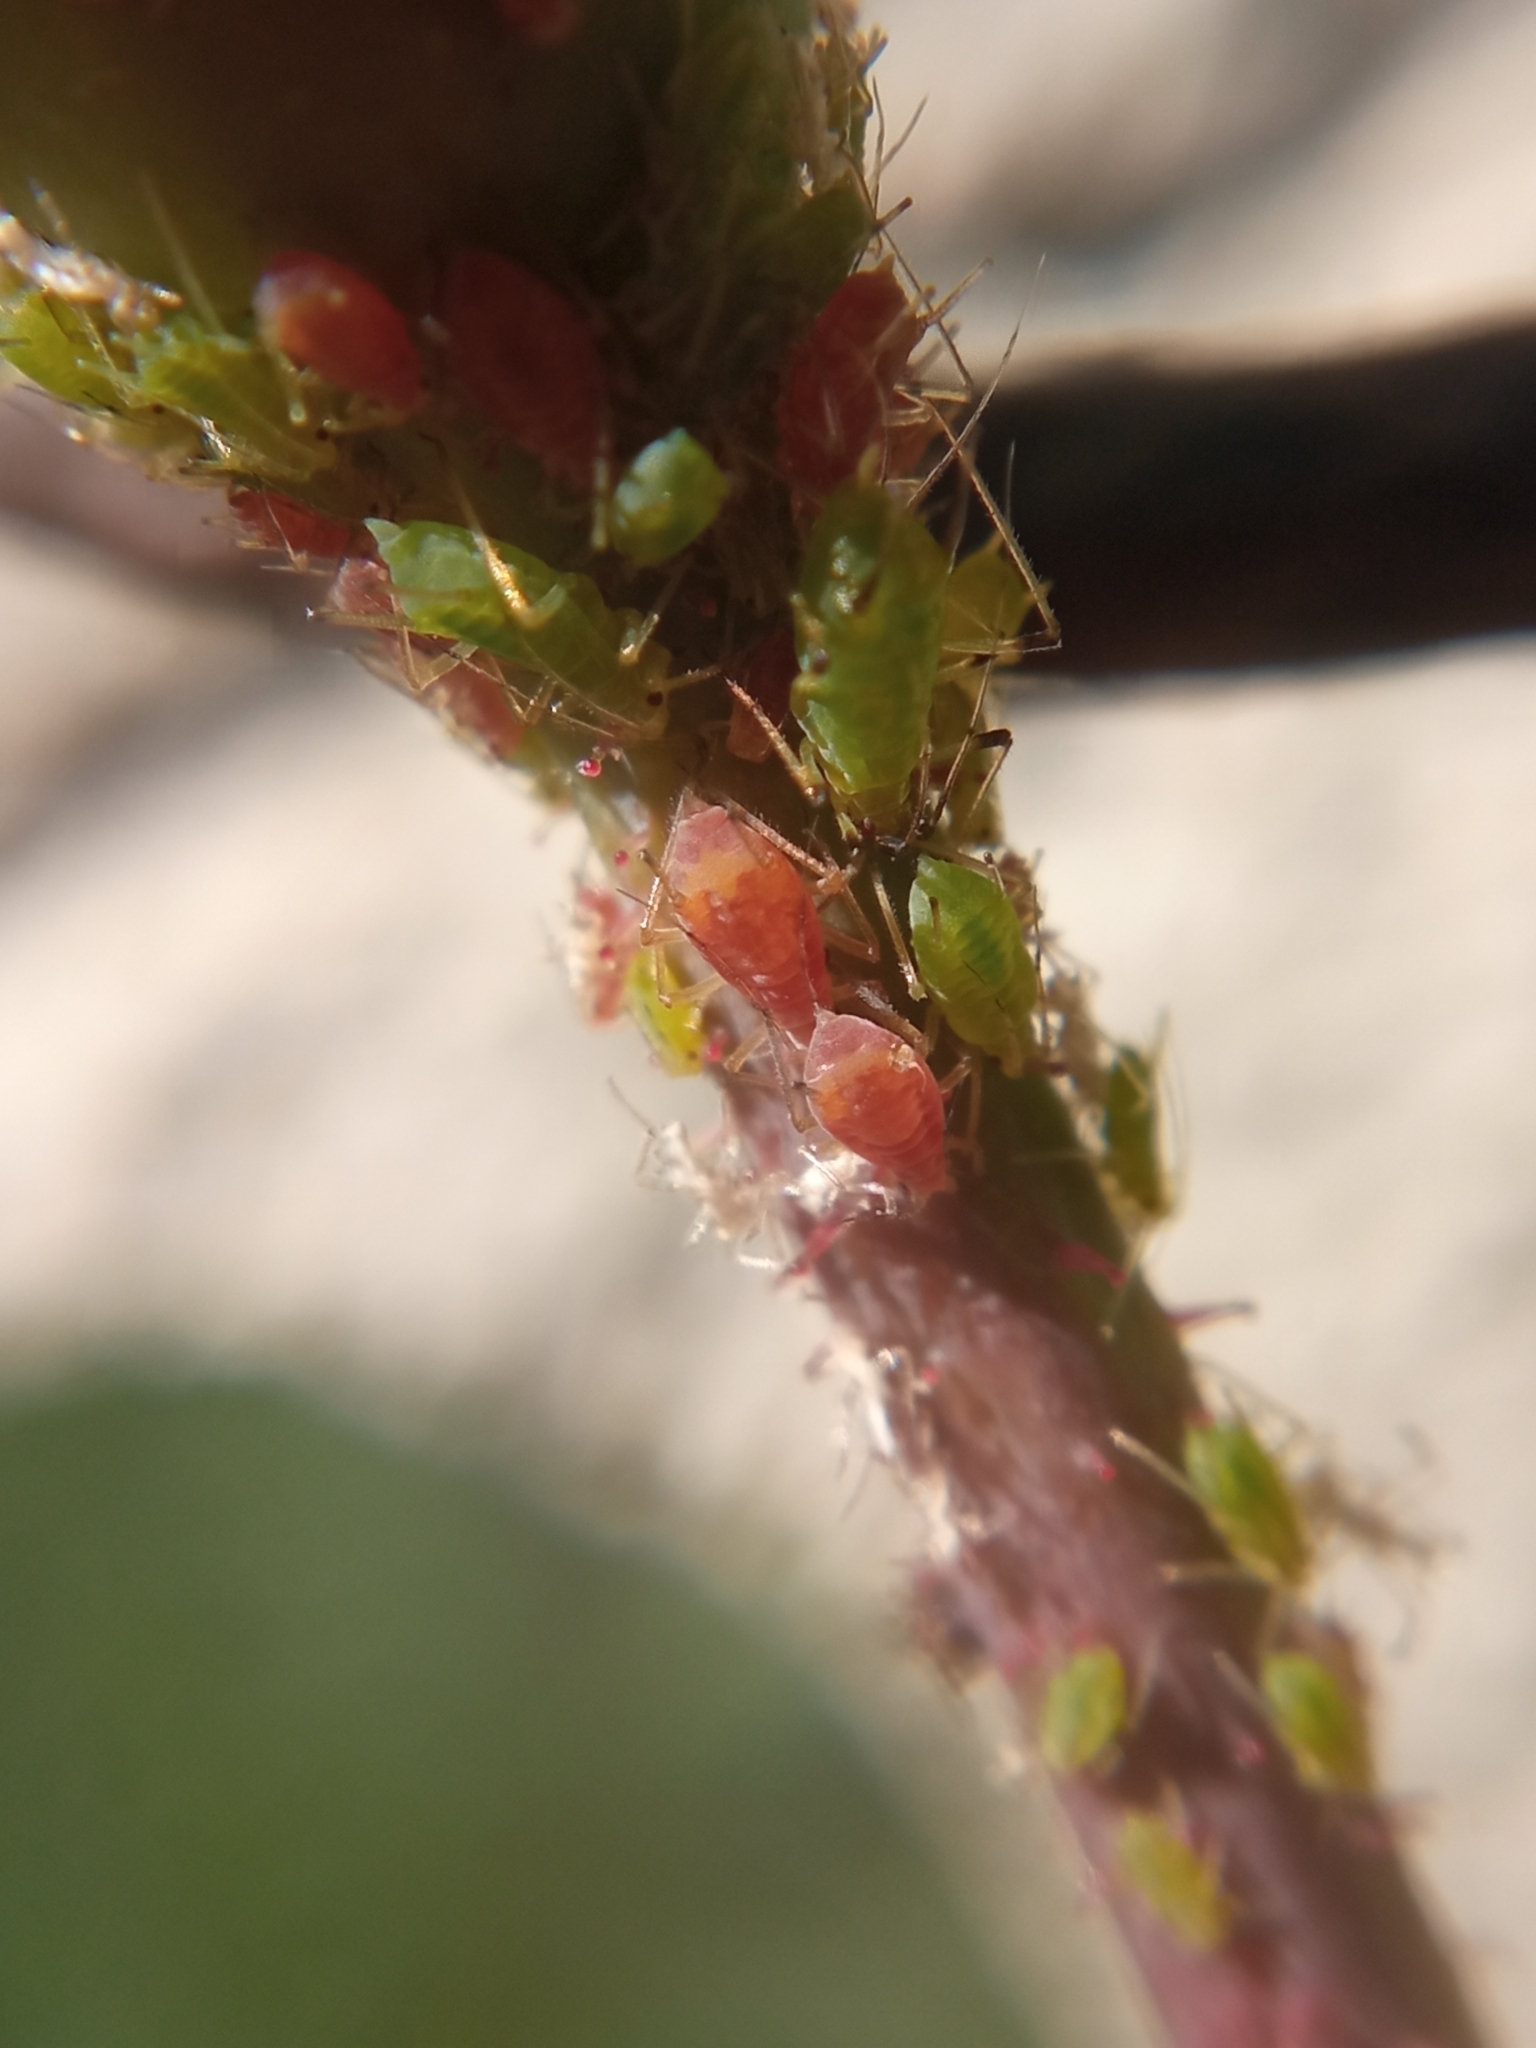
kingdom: Animalia
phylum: Arthropoda
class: Insecta
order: Hemiptera
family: Aphididae
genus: Macrosiphum
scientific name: Macrosiphum rosae
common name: Rose aphid
